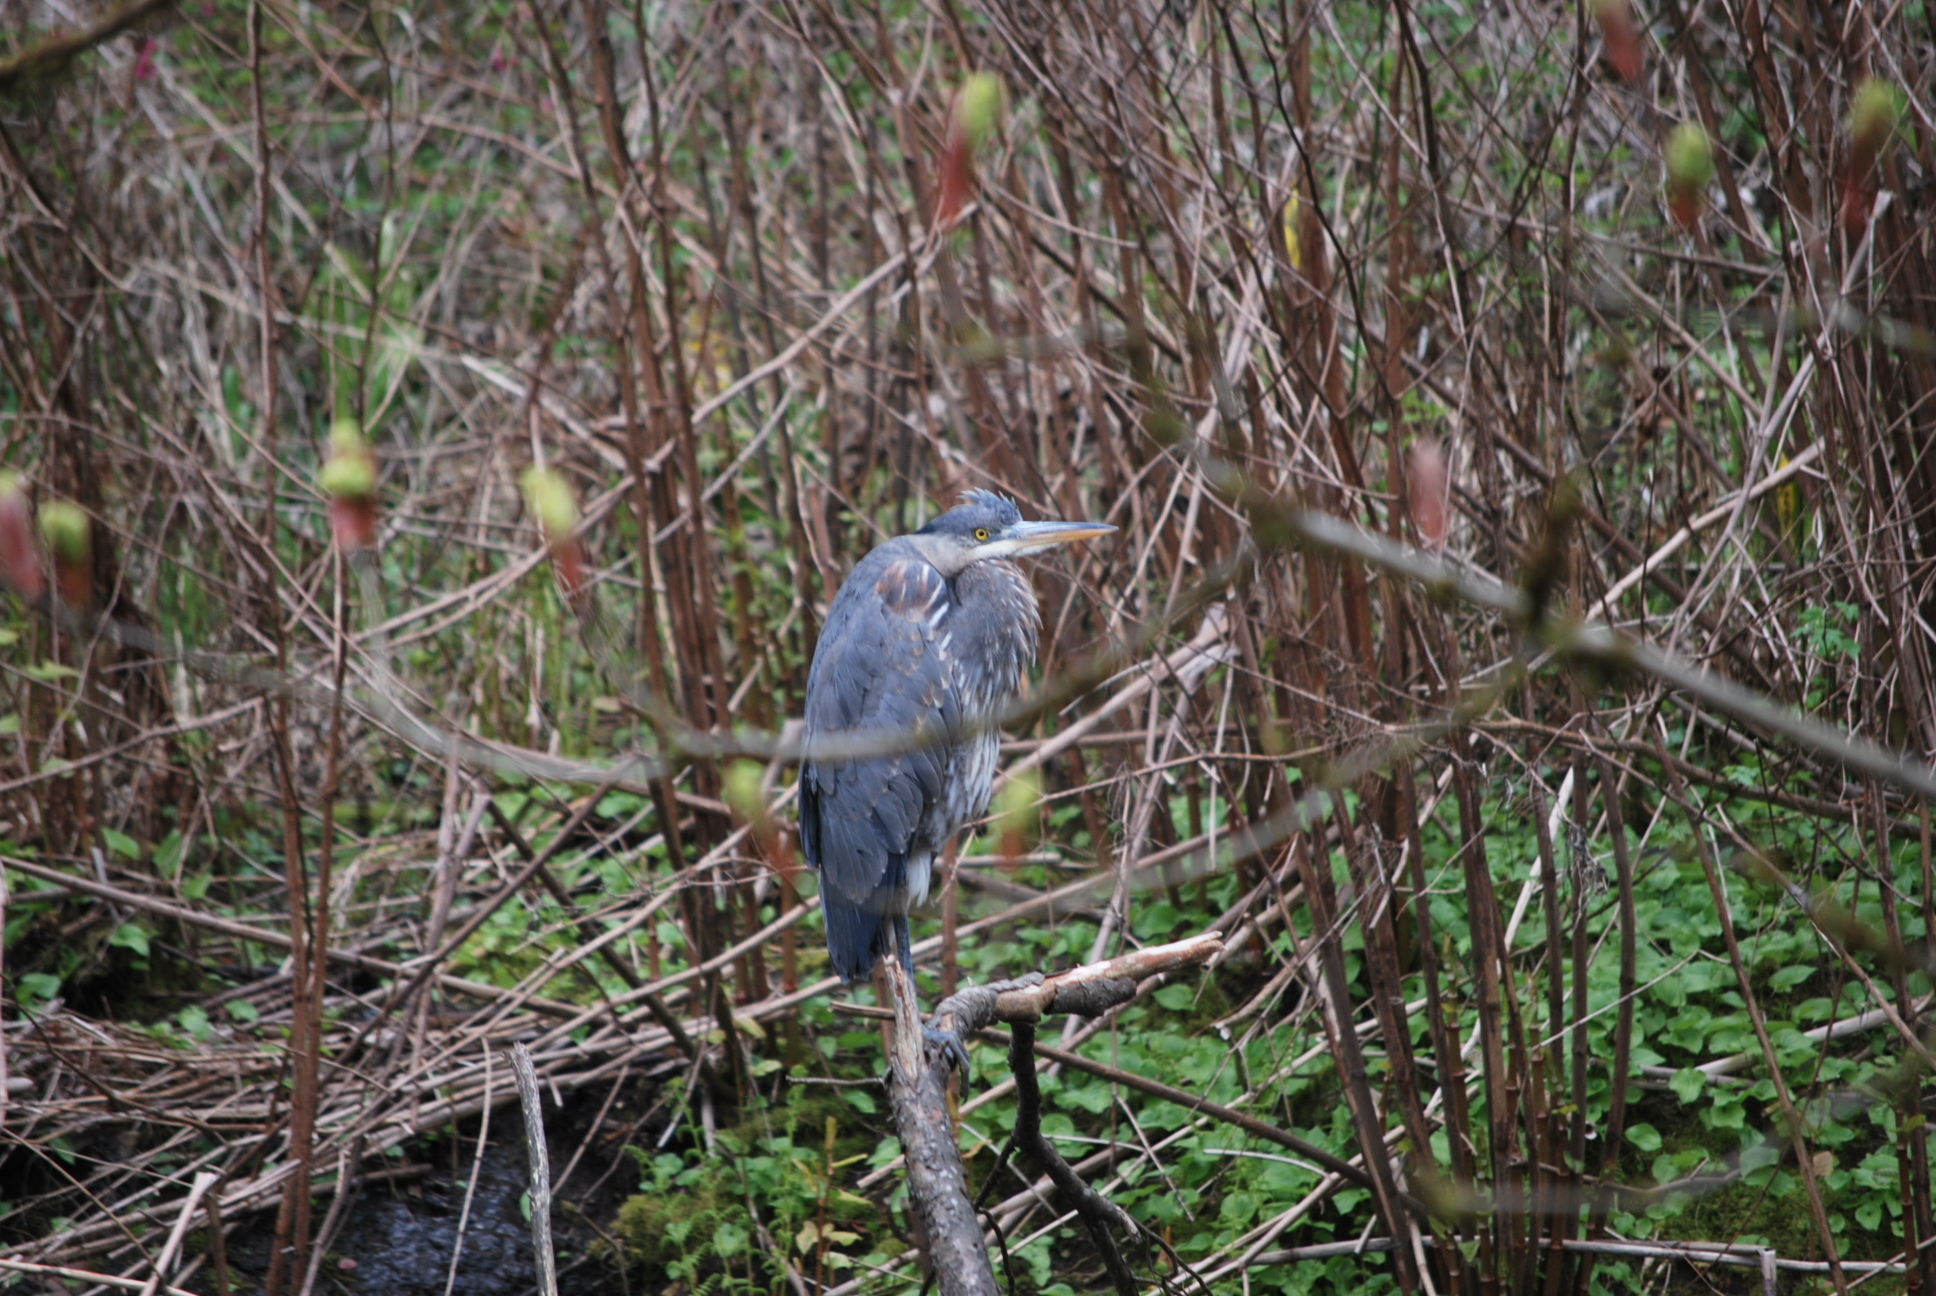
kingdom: Animalia
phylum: Chordata
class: Aves
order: Pelecaniformes
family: Ardeidae
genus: Ardea
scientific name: Ardea herodias
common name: Great blue heron
